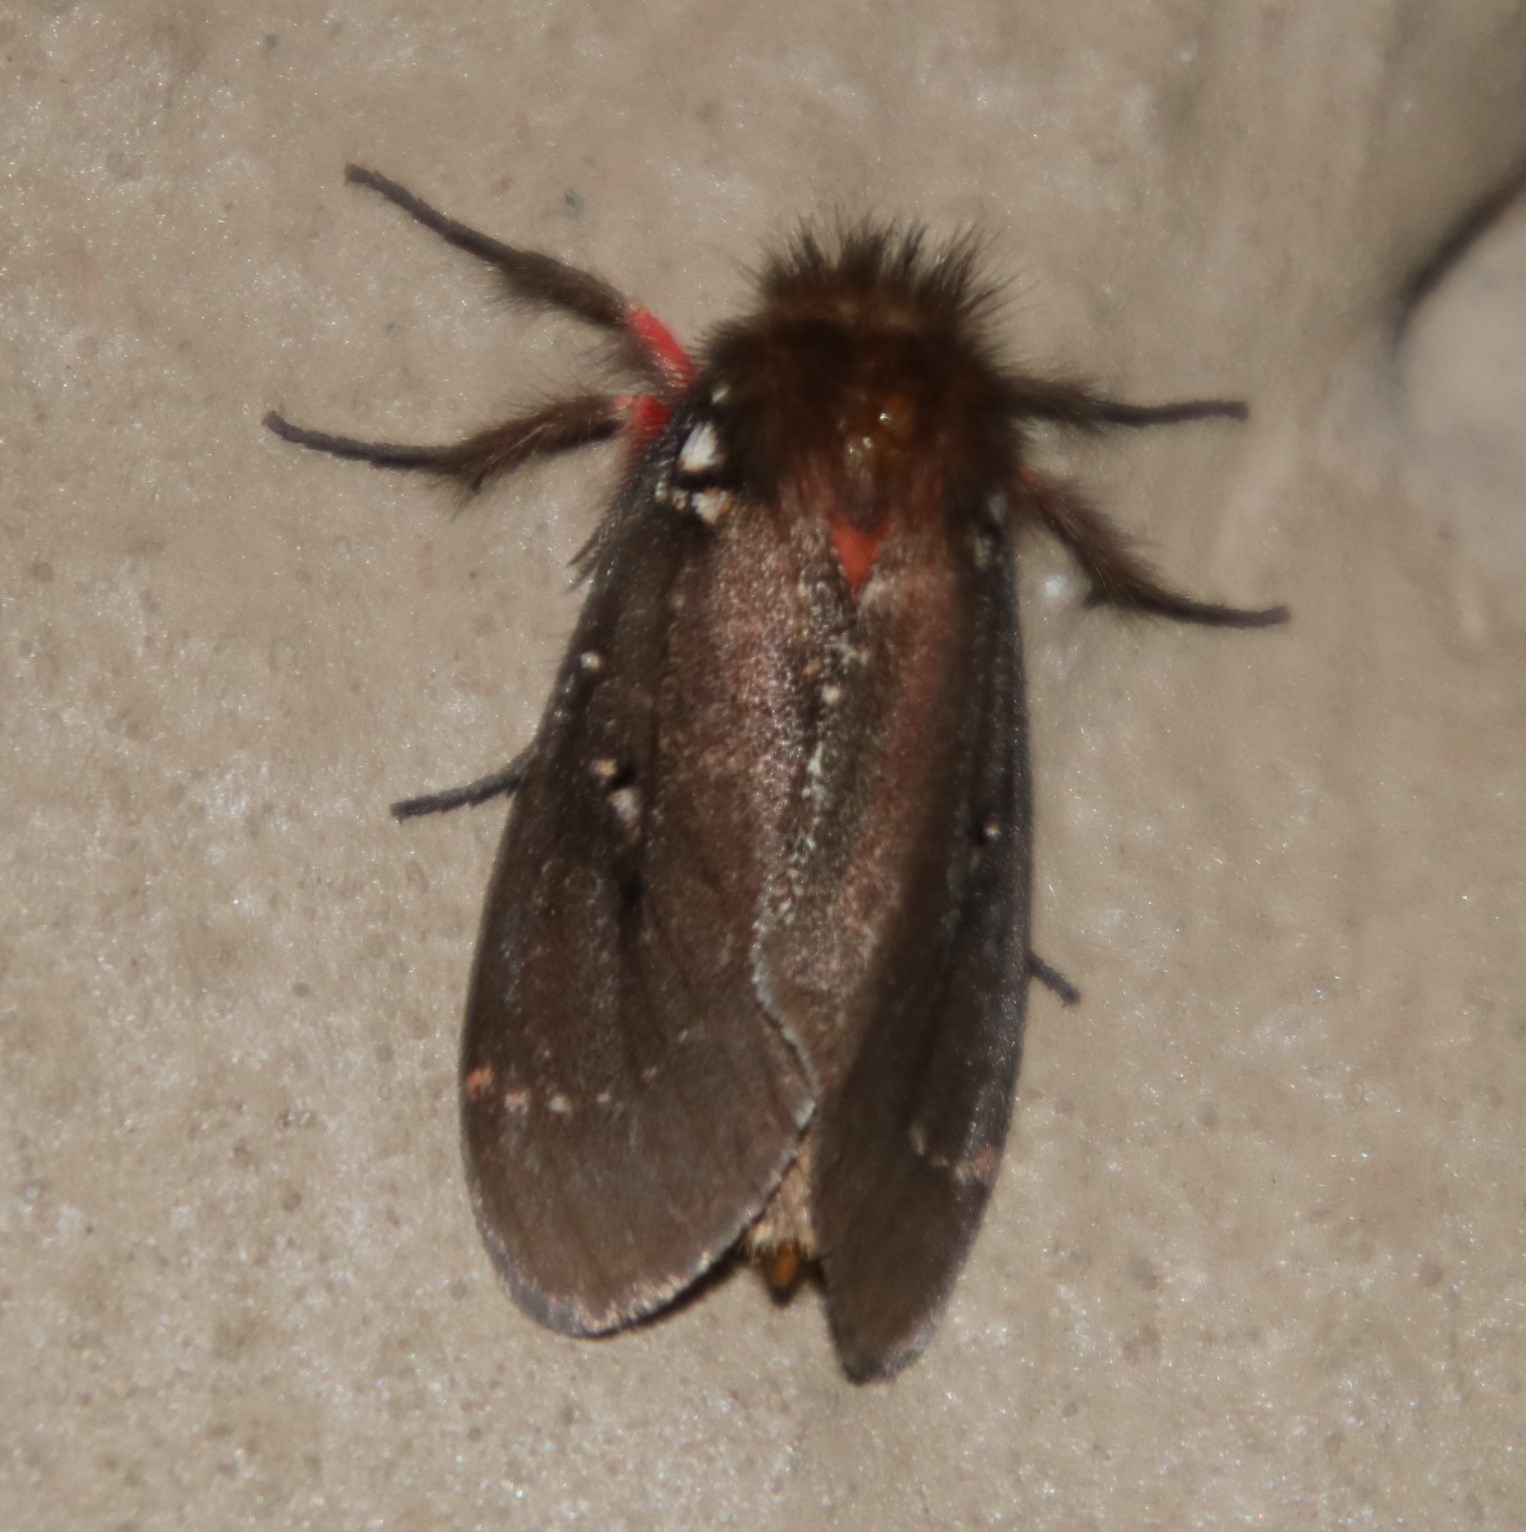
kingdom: Animalia
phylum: Arthropoda
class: Insecta
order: Lepidoptera
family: Erebidae
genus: Lymantria
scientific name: Lymantria Morasa modesta
